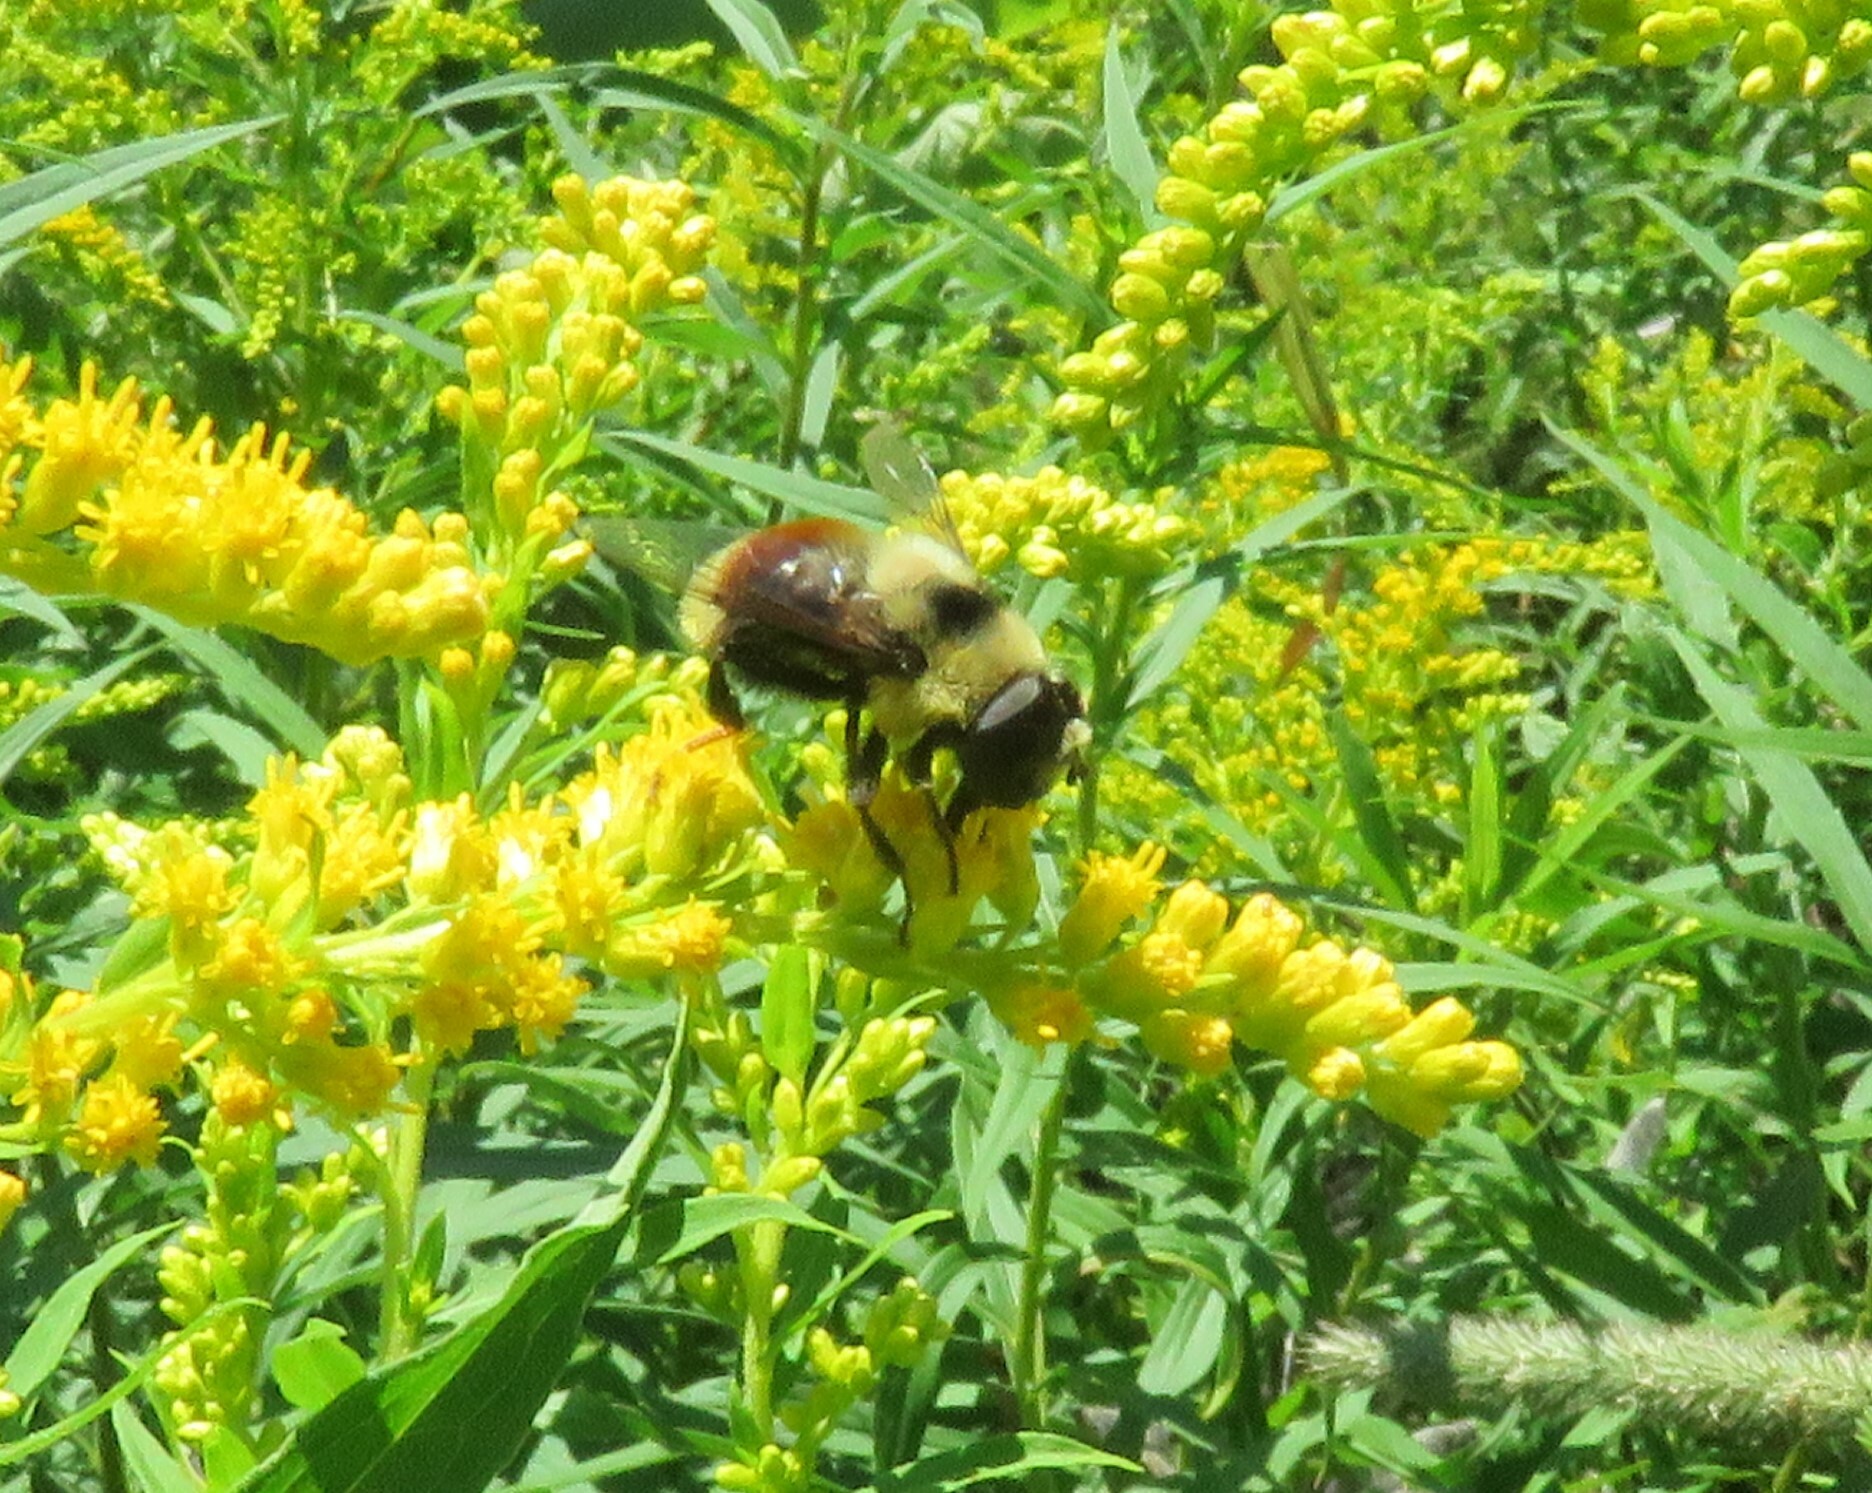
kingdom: Animalia
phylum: Arthropoda
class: Insecta
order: Diptera
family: Syrphidae
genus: Eristalis
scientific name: Eristalis flavipes
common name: Orange-legged drone fly
